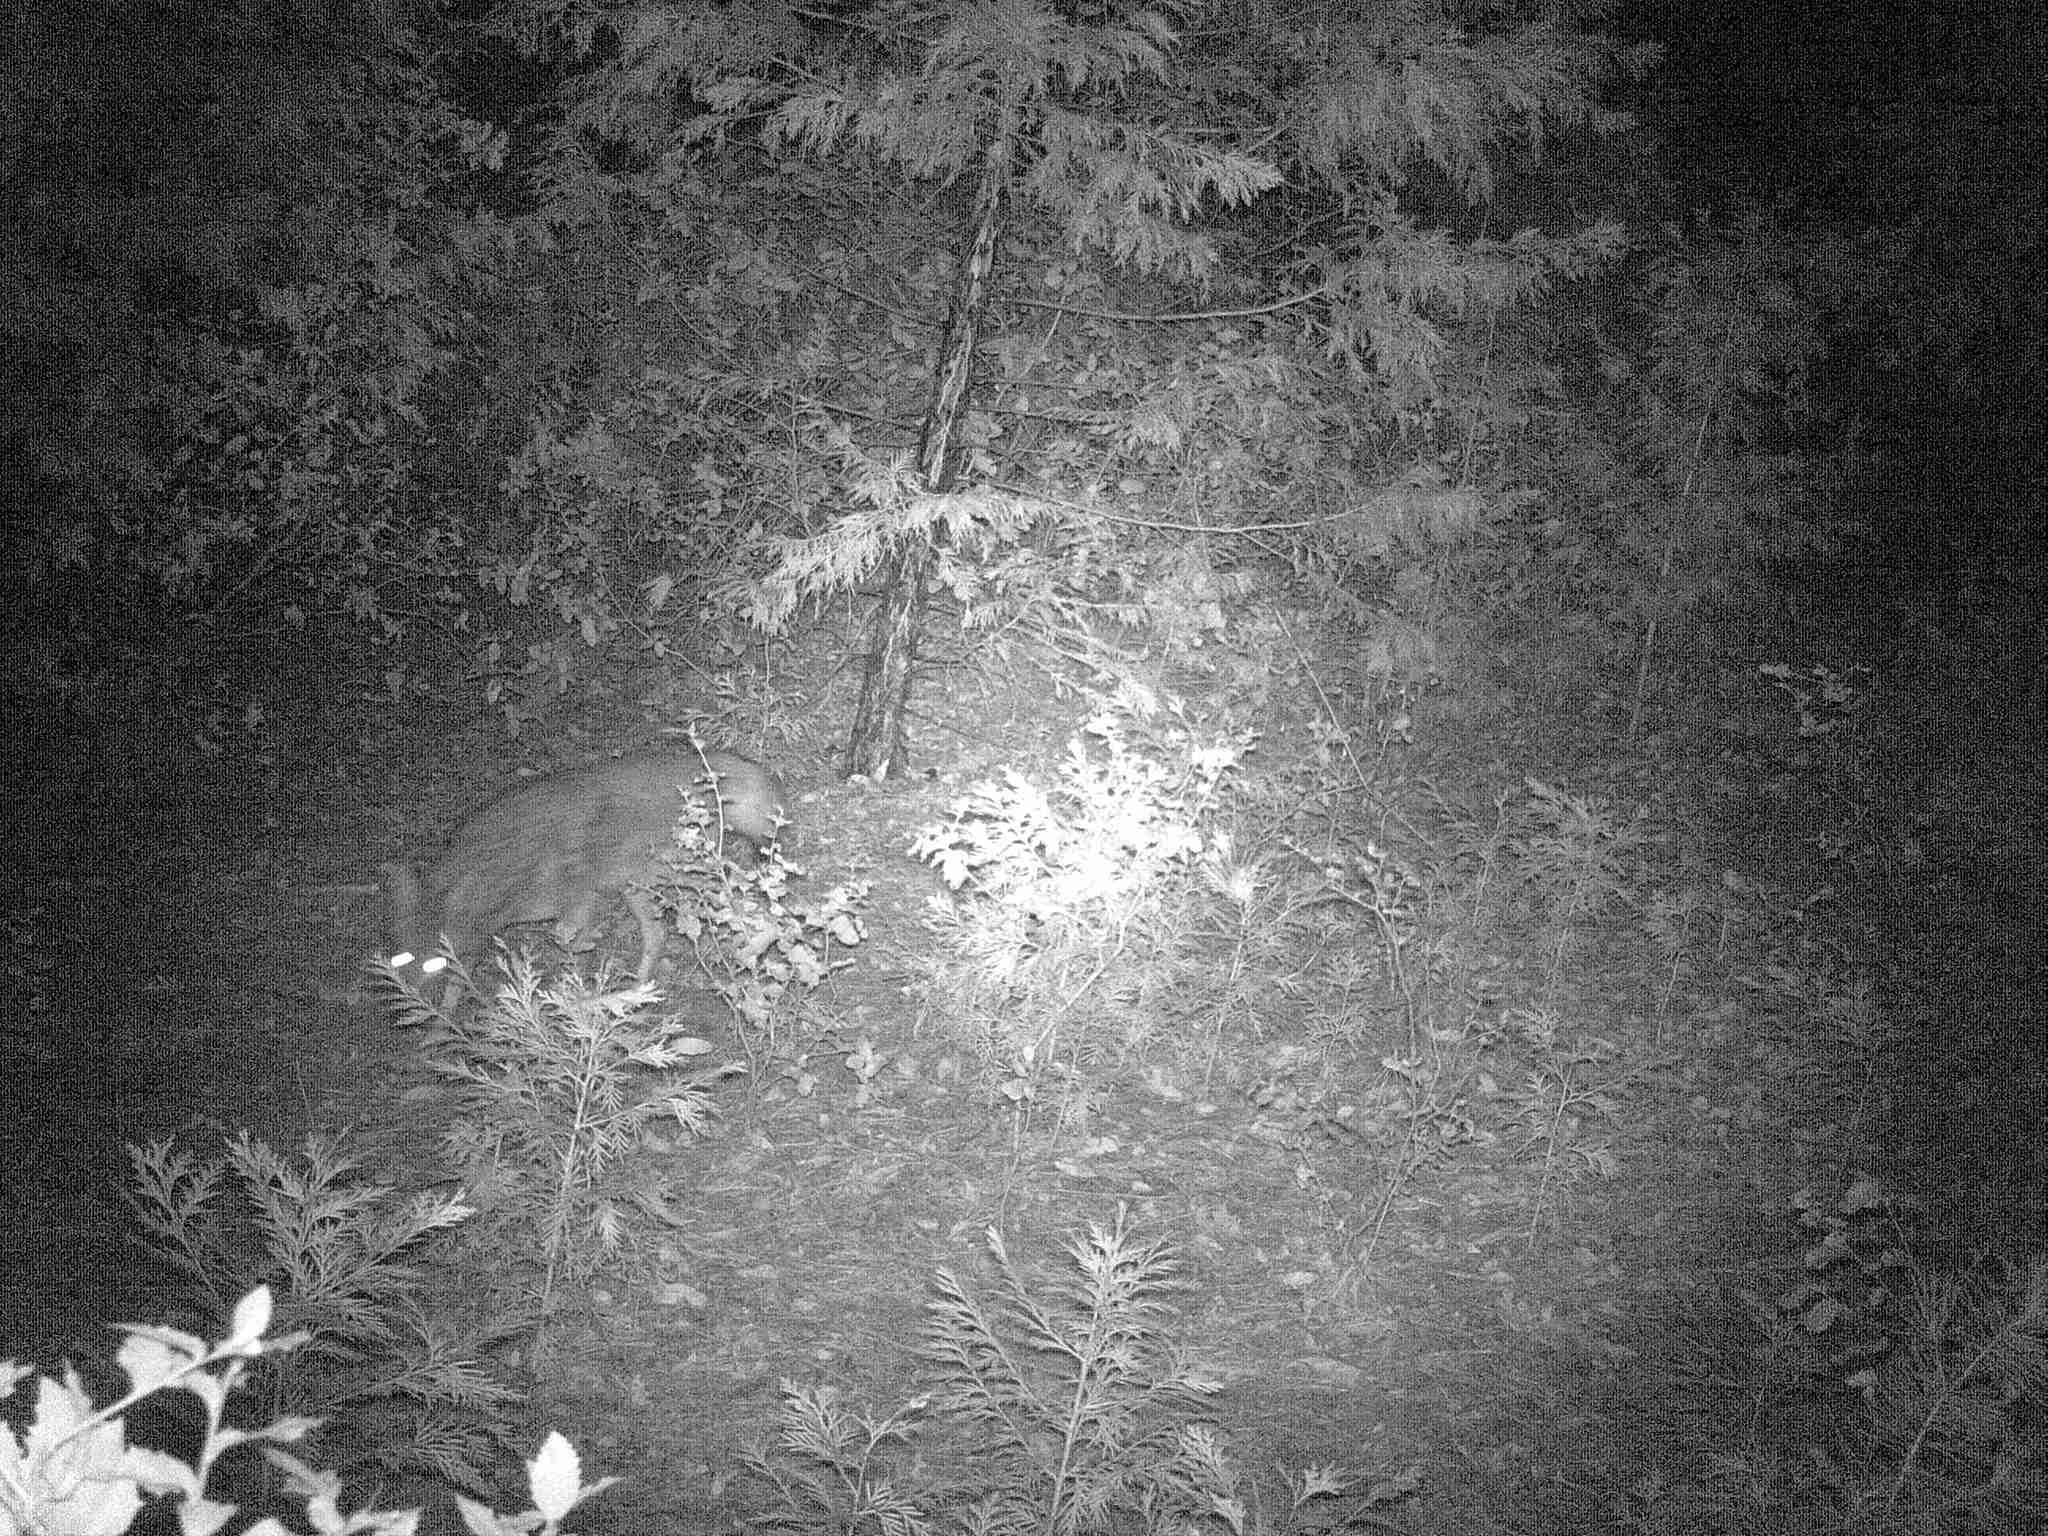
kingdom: Animalia
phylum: Chordata
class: Mammalia
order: Carnivora
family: Canidae
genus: Canis
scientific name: Canis latrans
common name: Coyote
